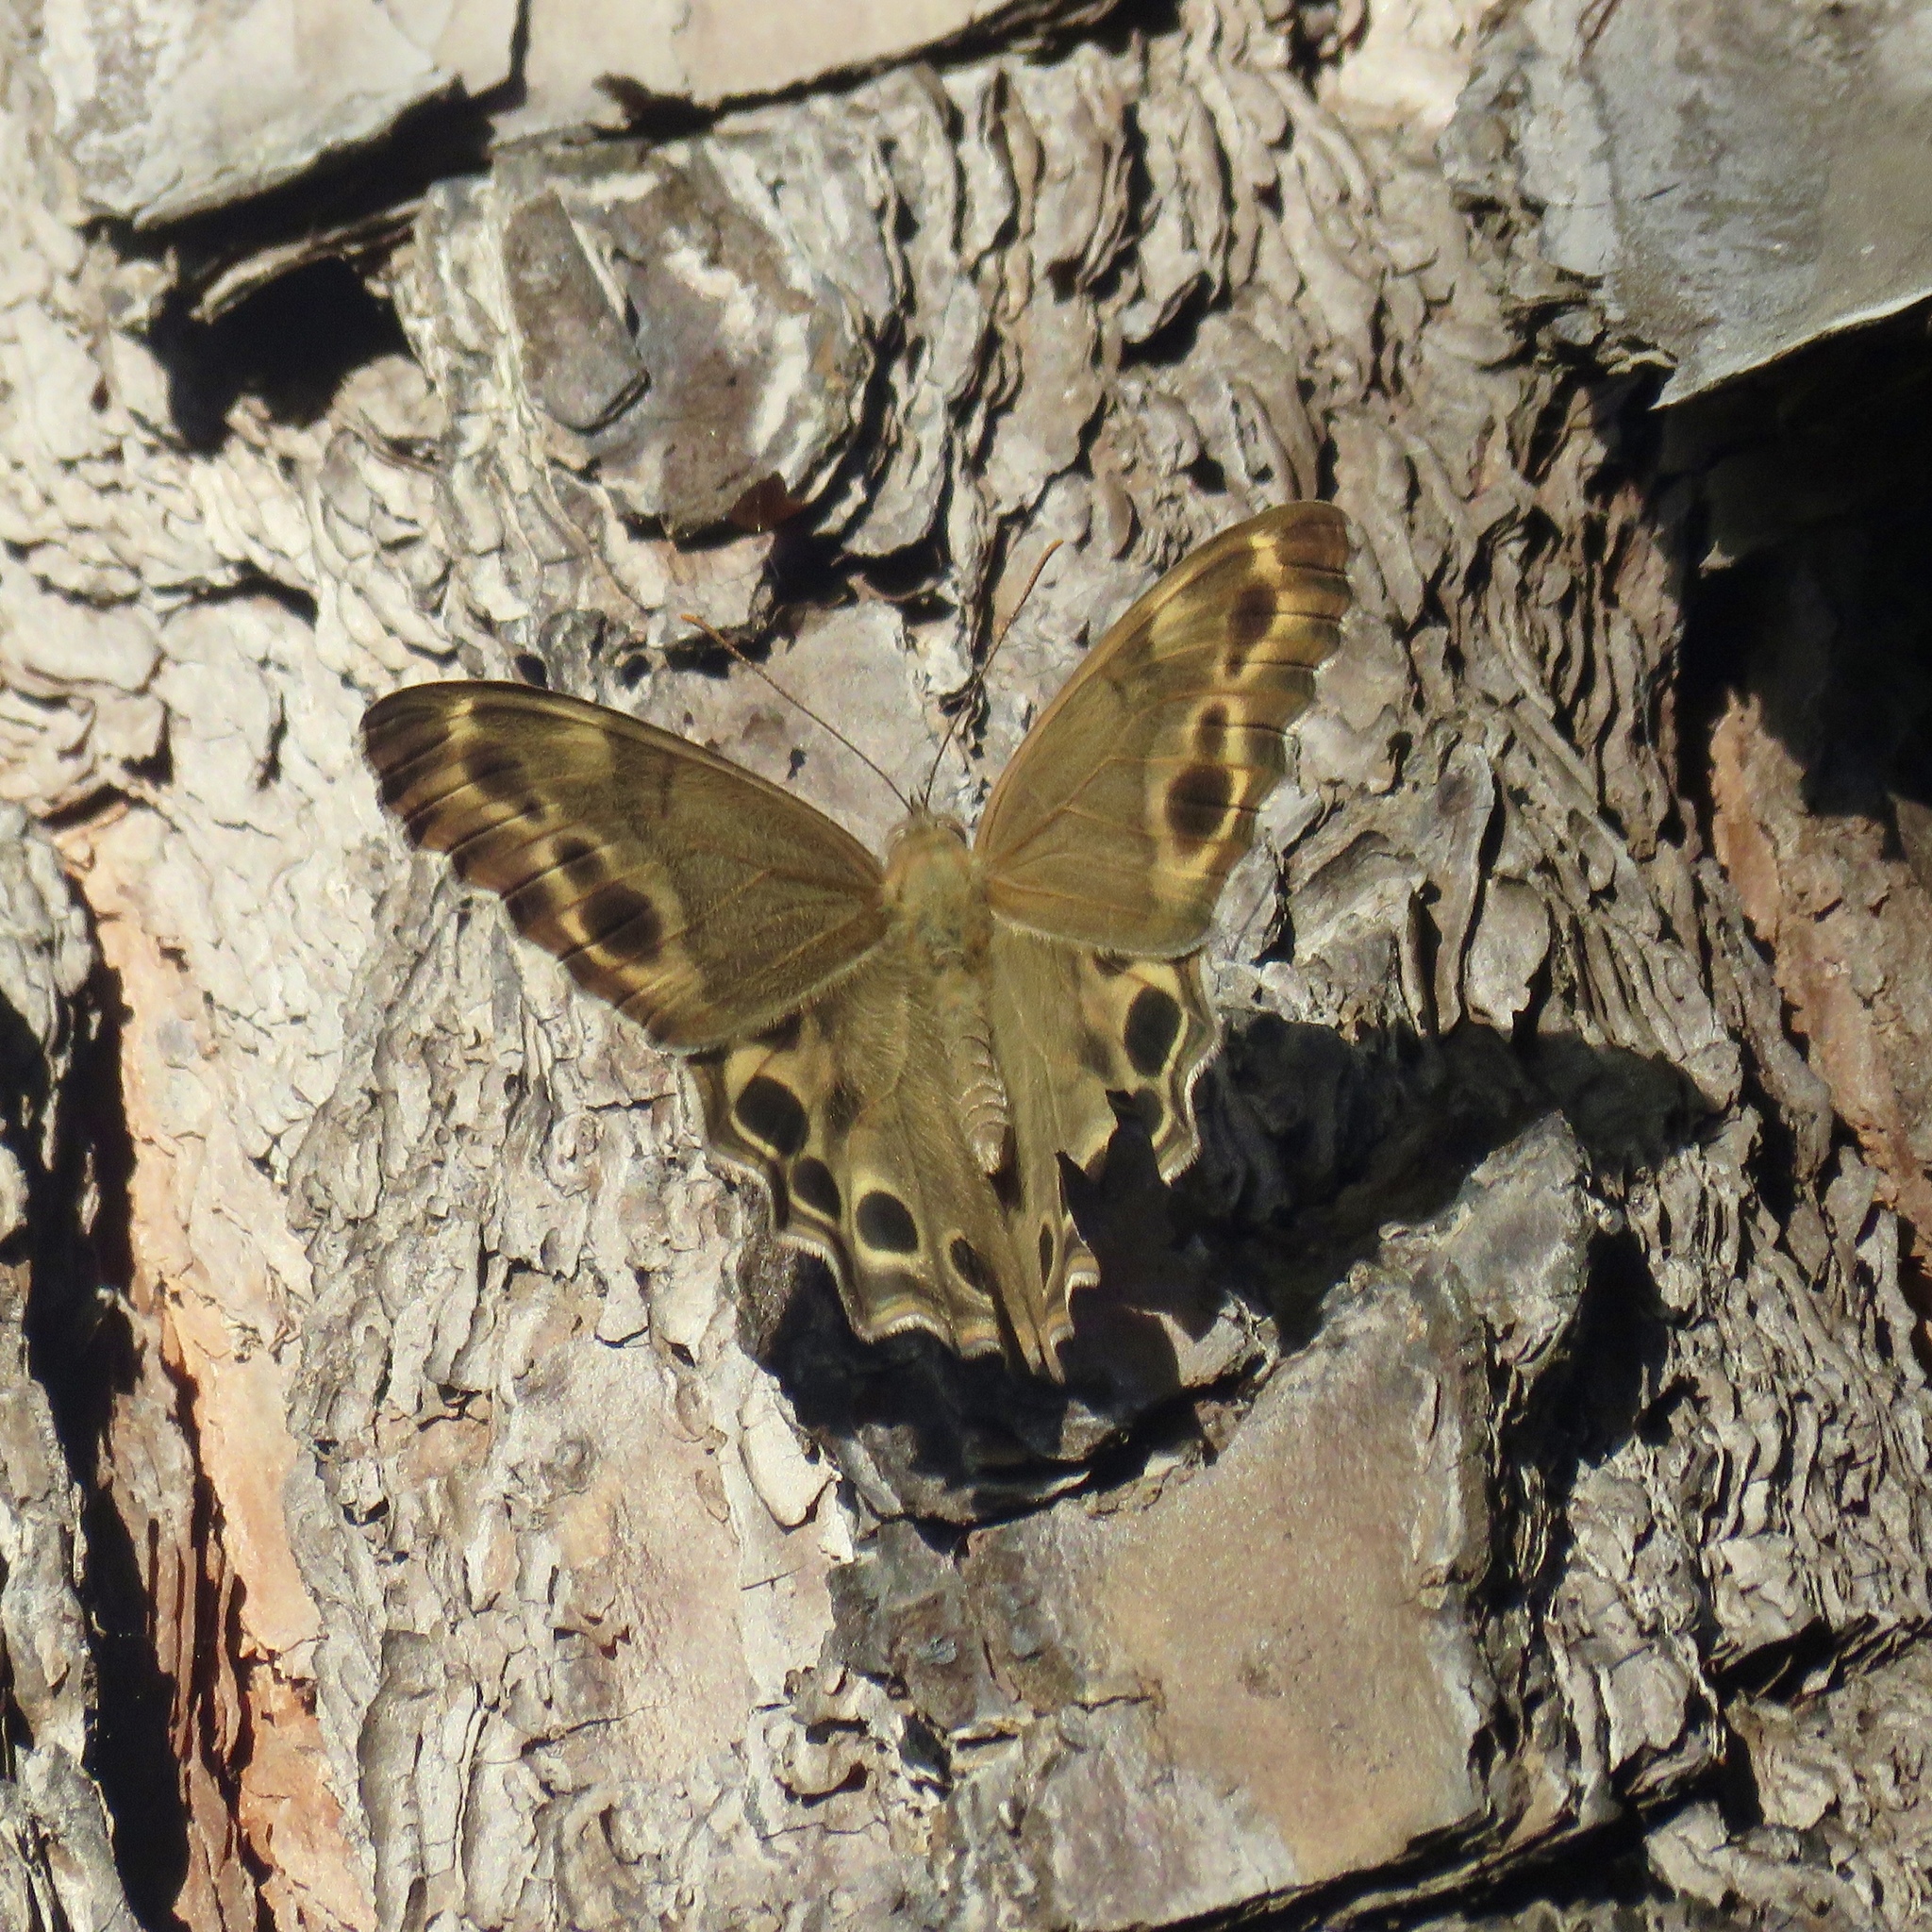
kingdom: Animalia
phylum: Arthropoda
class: Insecta
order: Lepidoptera
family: Nymphalidae
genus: Enodia
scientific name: Enodia portlandia
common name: Southern pearly-eye
